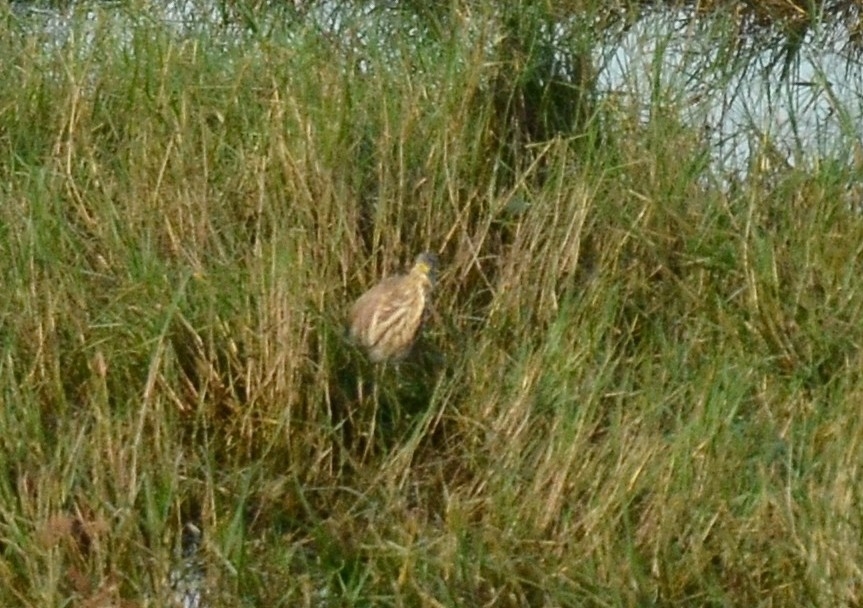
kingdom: Animalia
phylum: Chordata
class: Aves
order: Pelecaniformes
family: Ardeidae
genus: Ardeola
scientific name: Ardeola grayii
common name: Indian pond heron
